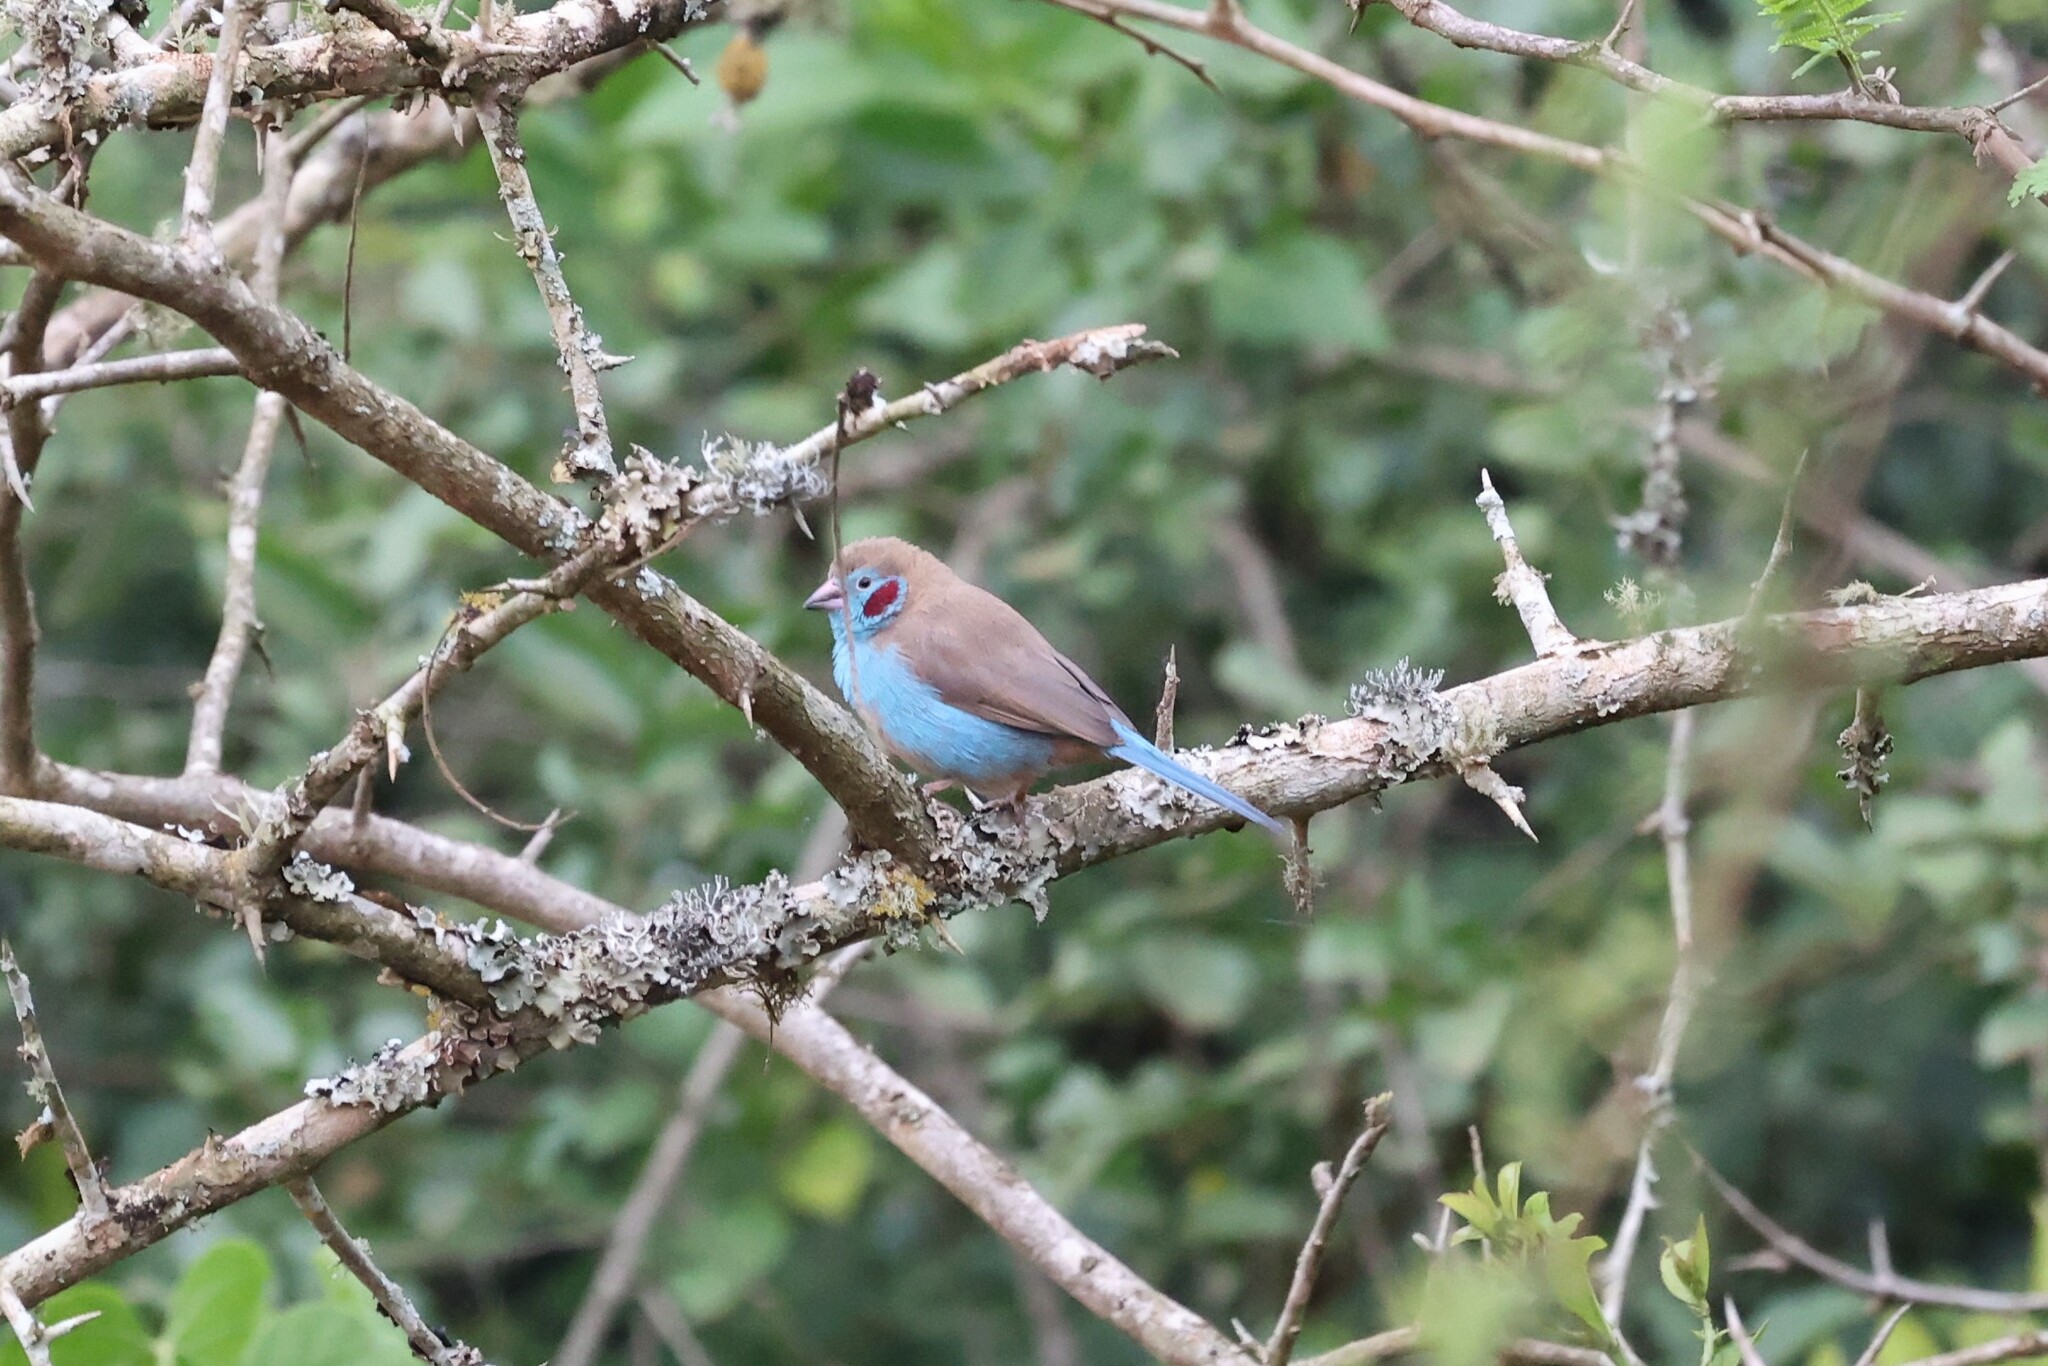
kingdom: Animalia
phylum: Chordata
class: Aves
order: Passeriformes
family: Estrildidae
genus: Uraeginthus
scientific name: Uraeginthus bengalus
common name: Red-cheeked cordon-bleu
